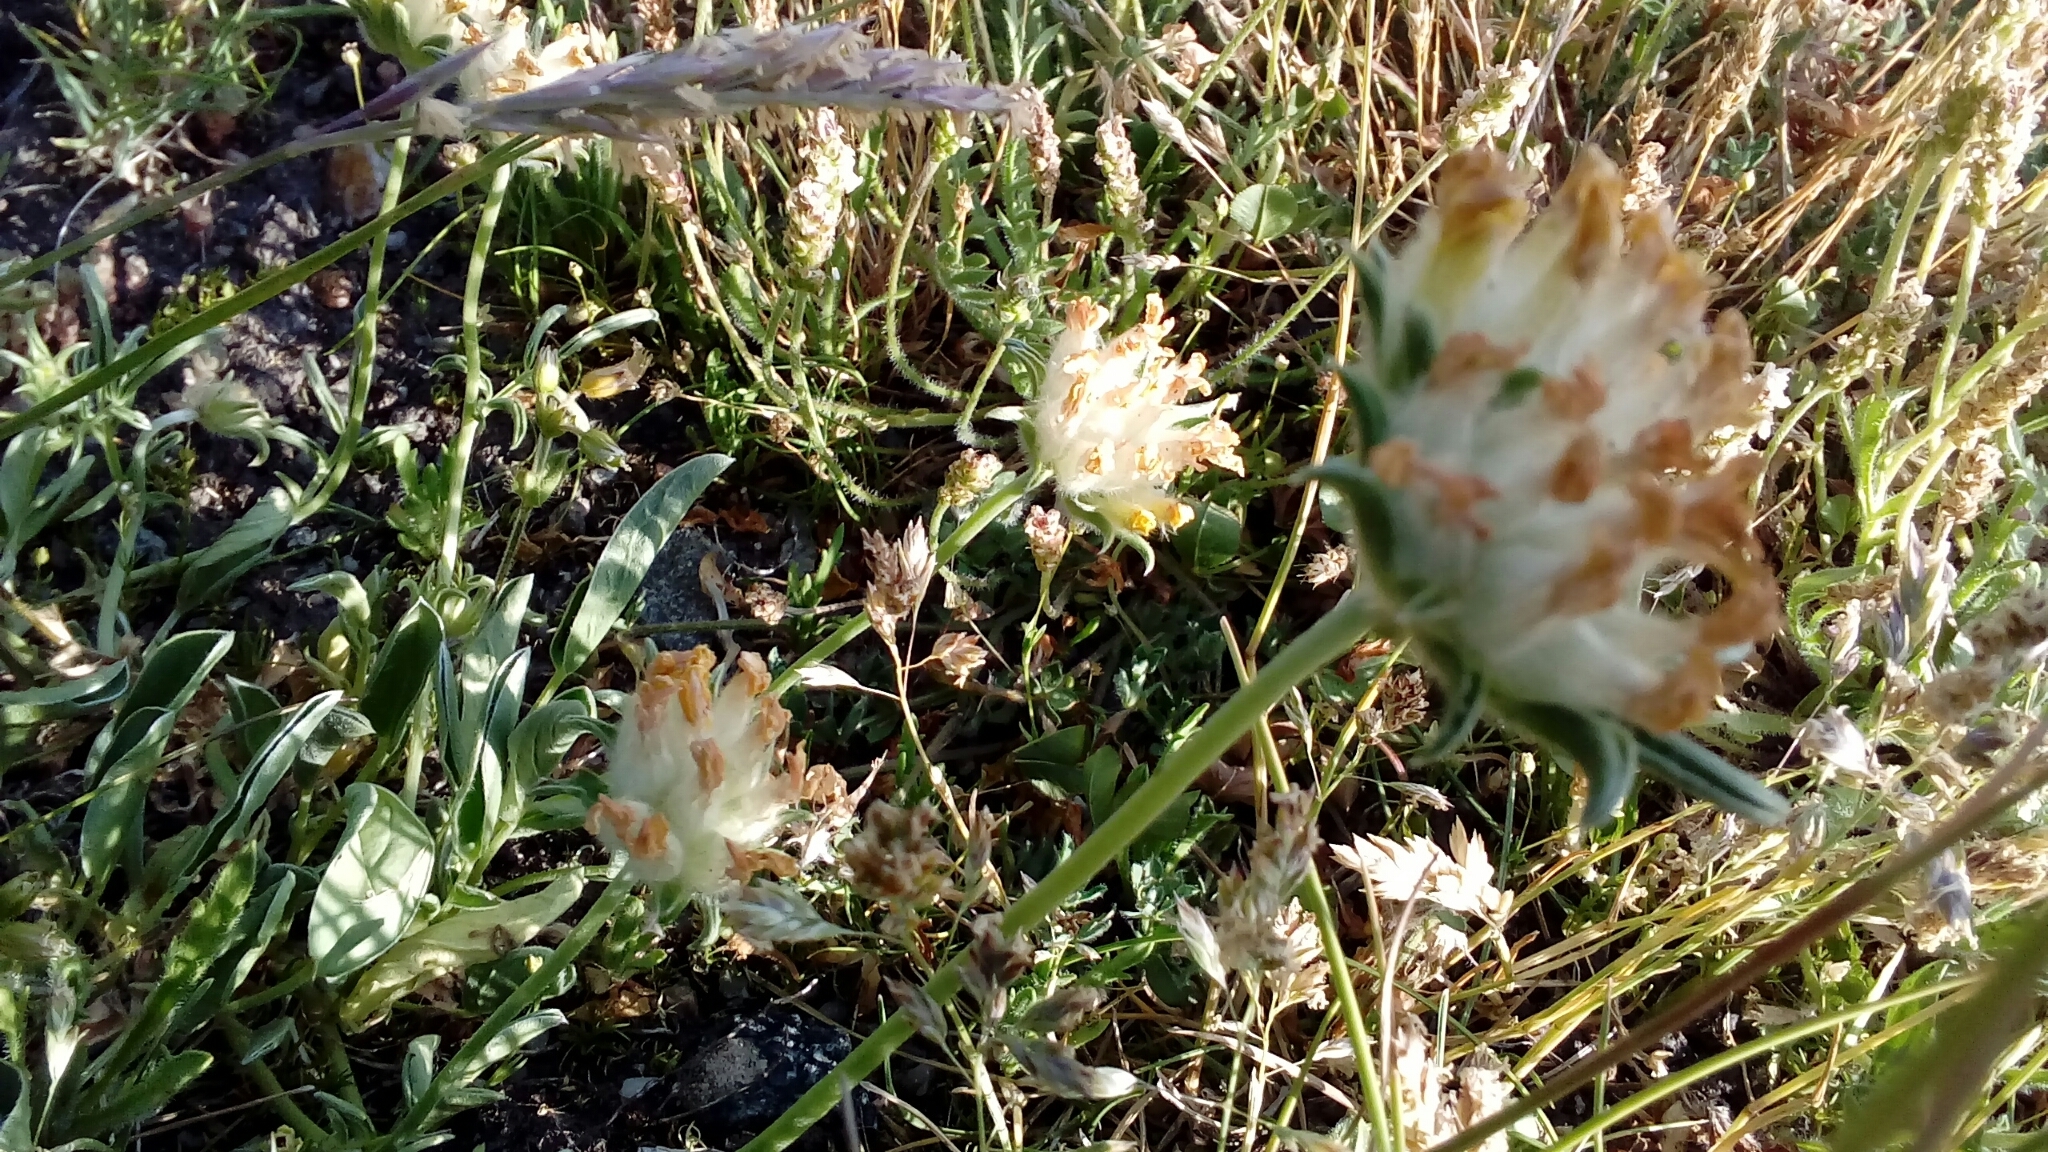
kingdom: Plantae
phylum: Tracheophyta
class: Magnoliopsida
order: Fabales
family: Fabaceae
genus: Anthyllis
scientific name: Anthyllis vulneraria
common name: Kidney vetch
